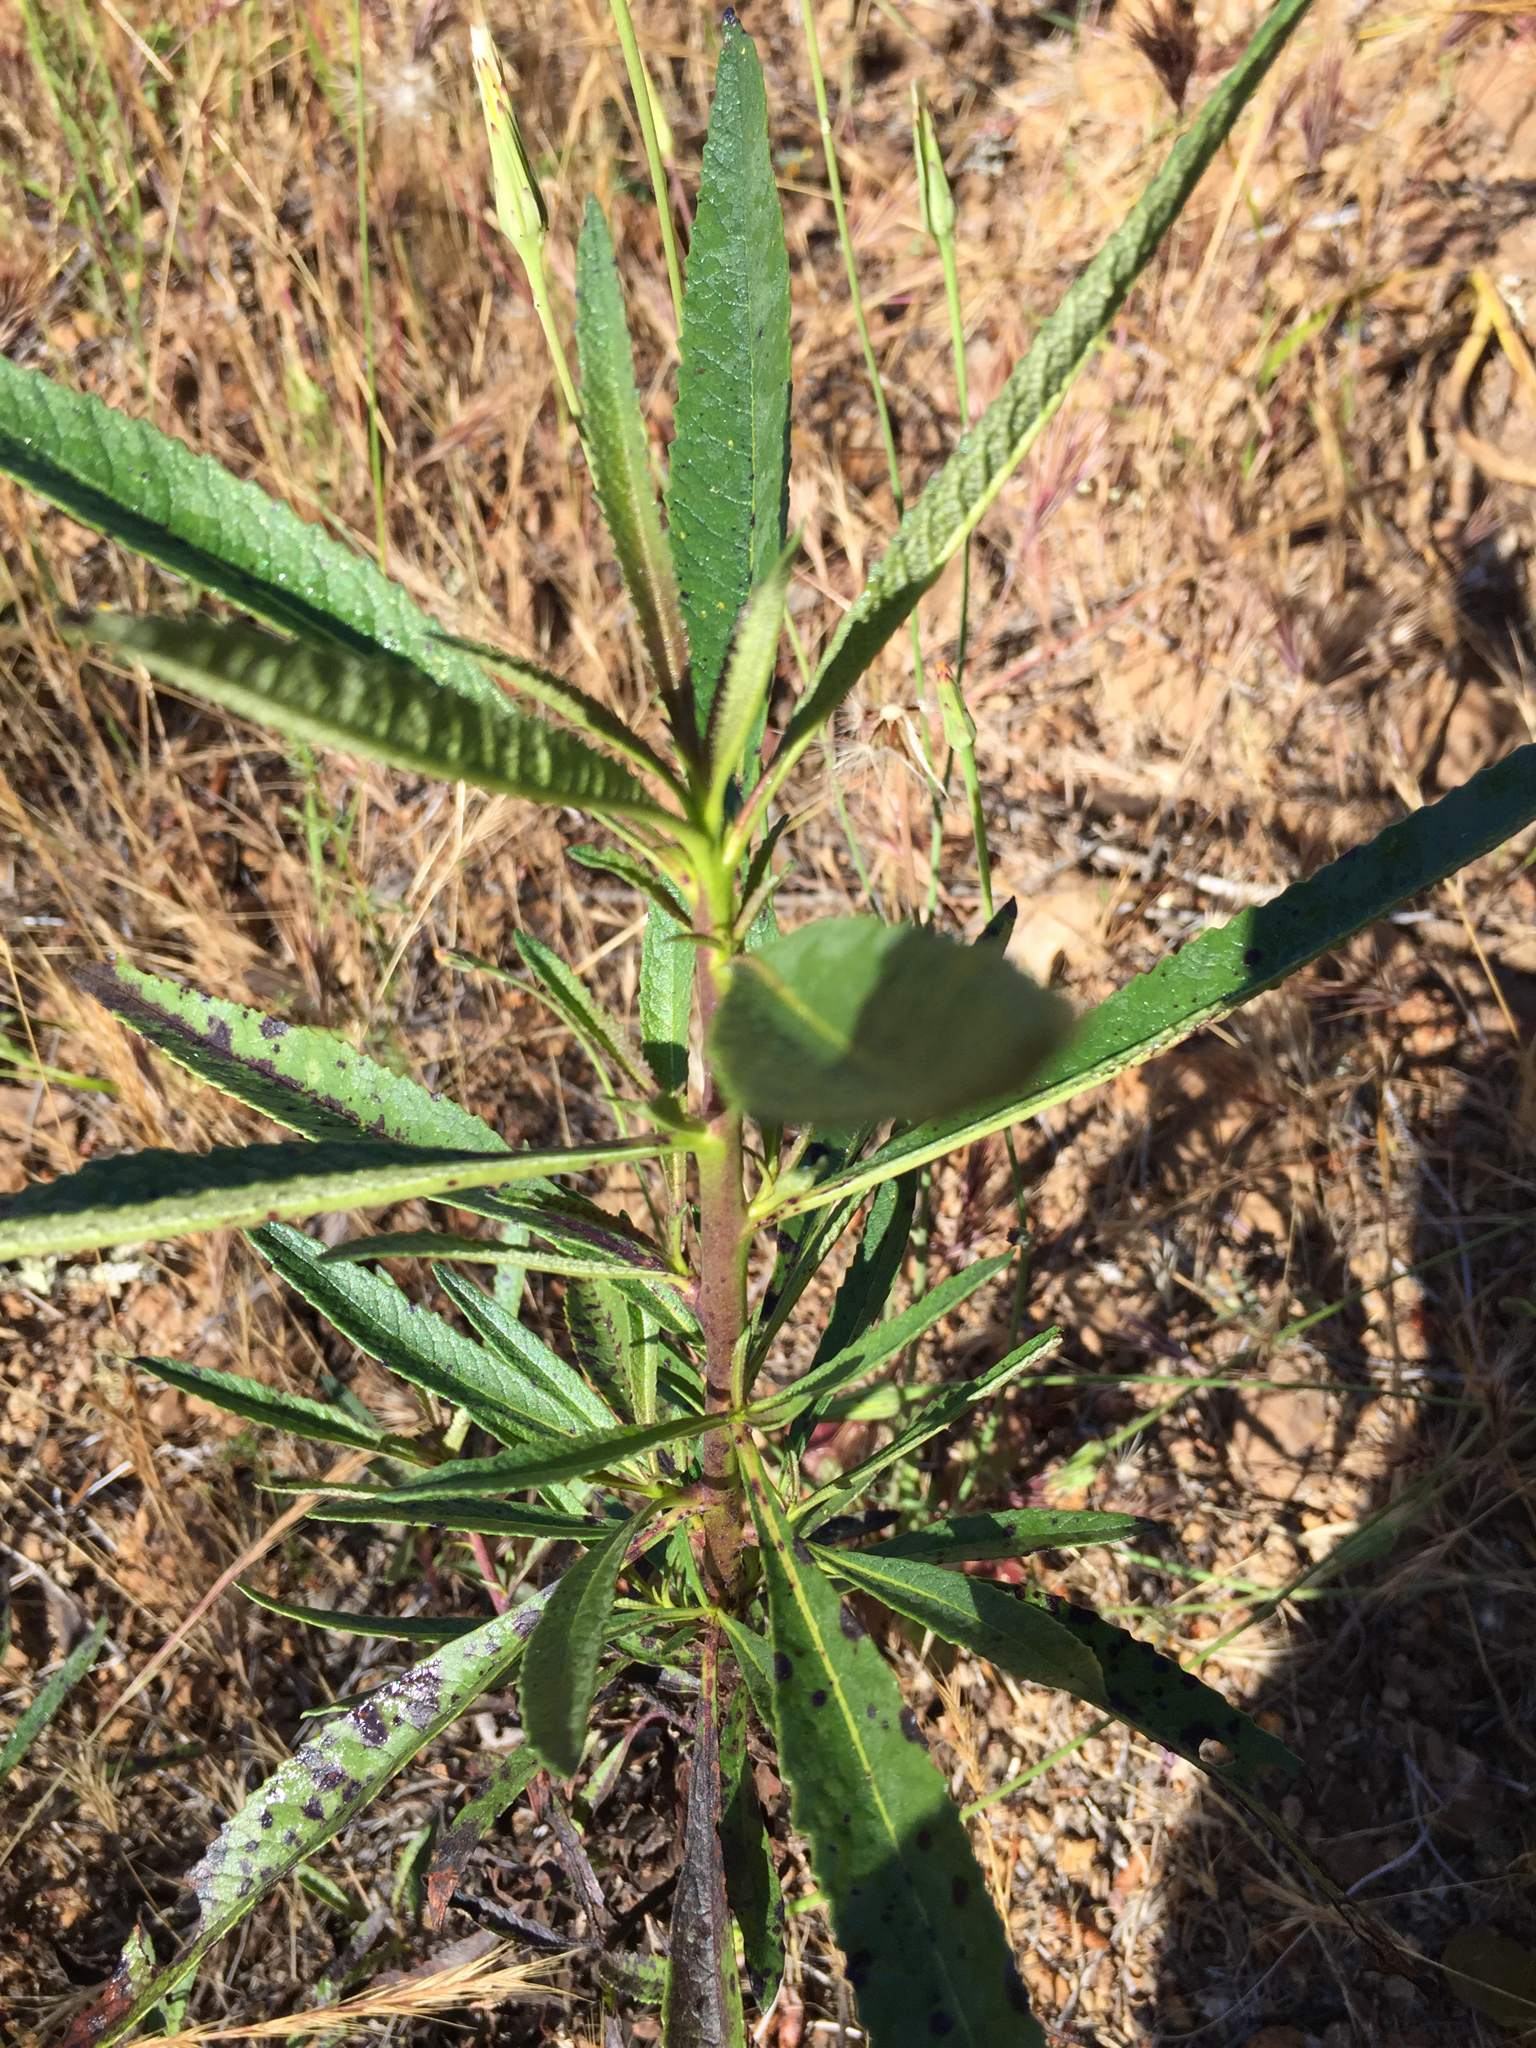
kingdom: Plantae
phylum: Tracheophyta
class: Magnoliopsida
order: Boraginales
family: Namaceae
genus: Eriodictyon
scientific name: Eriodictyon californicum
